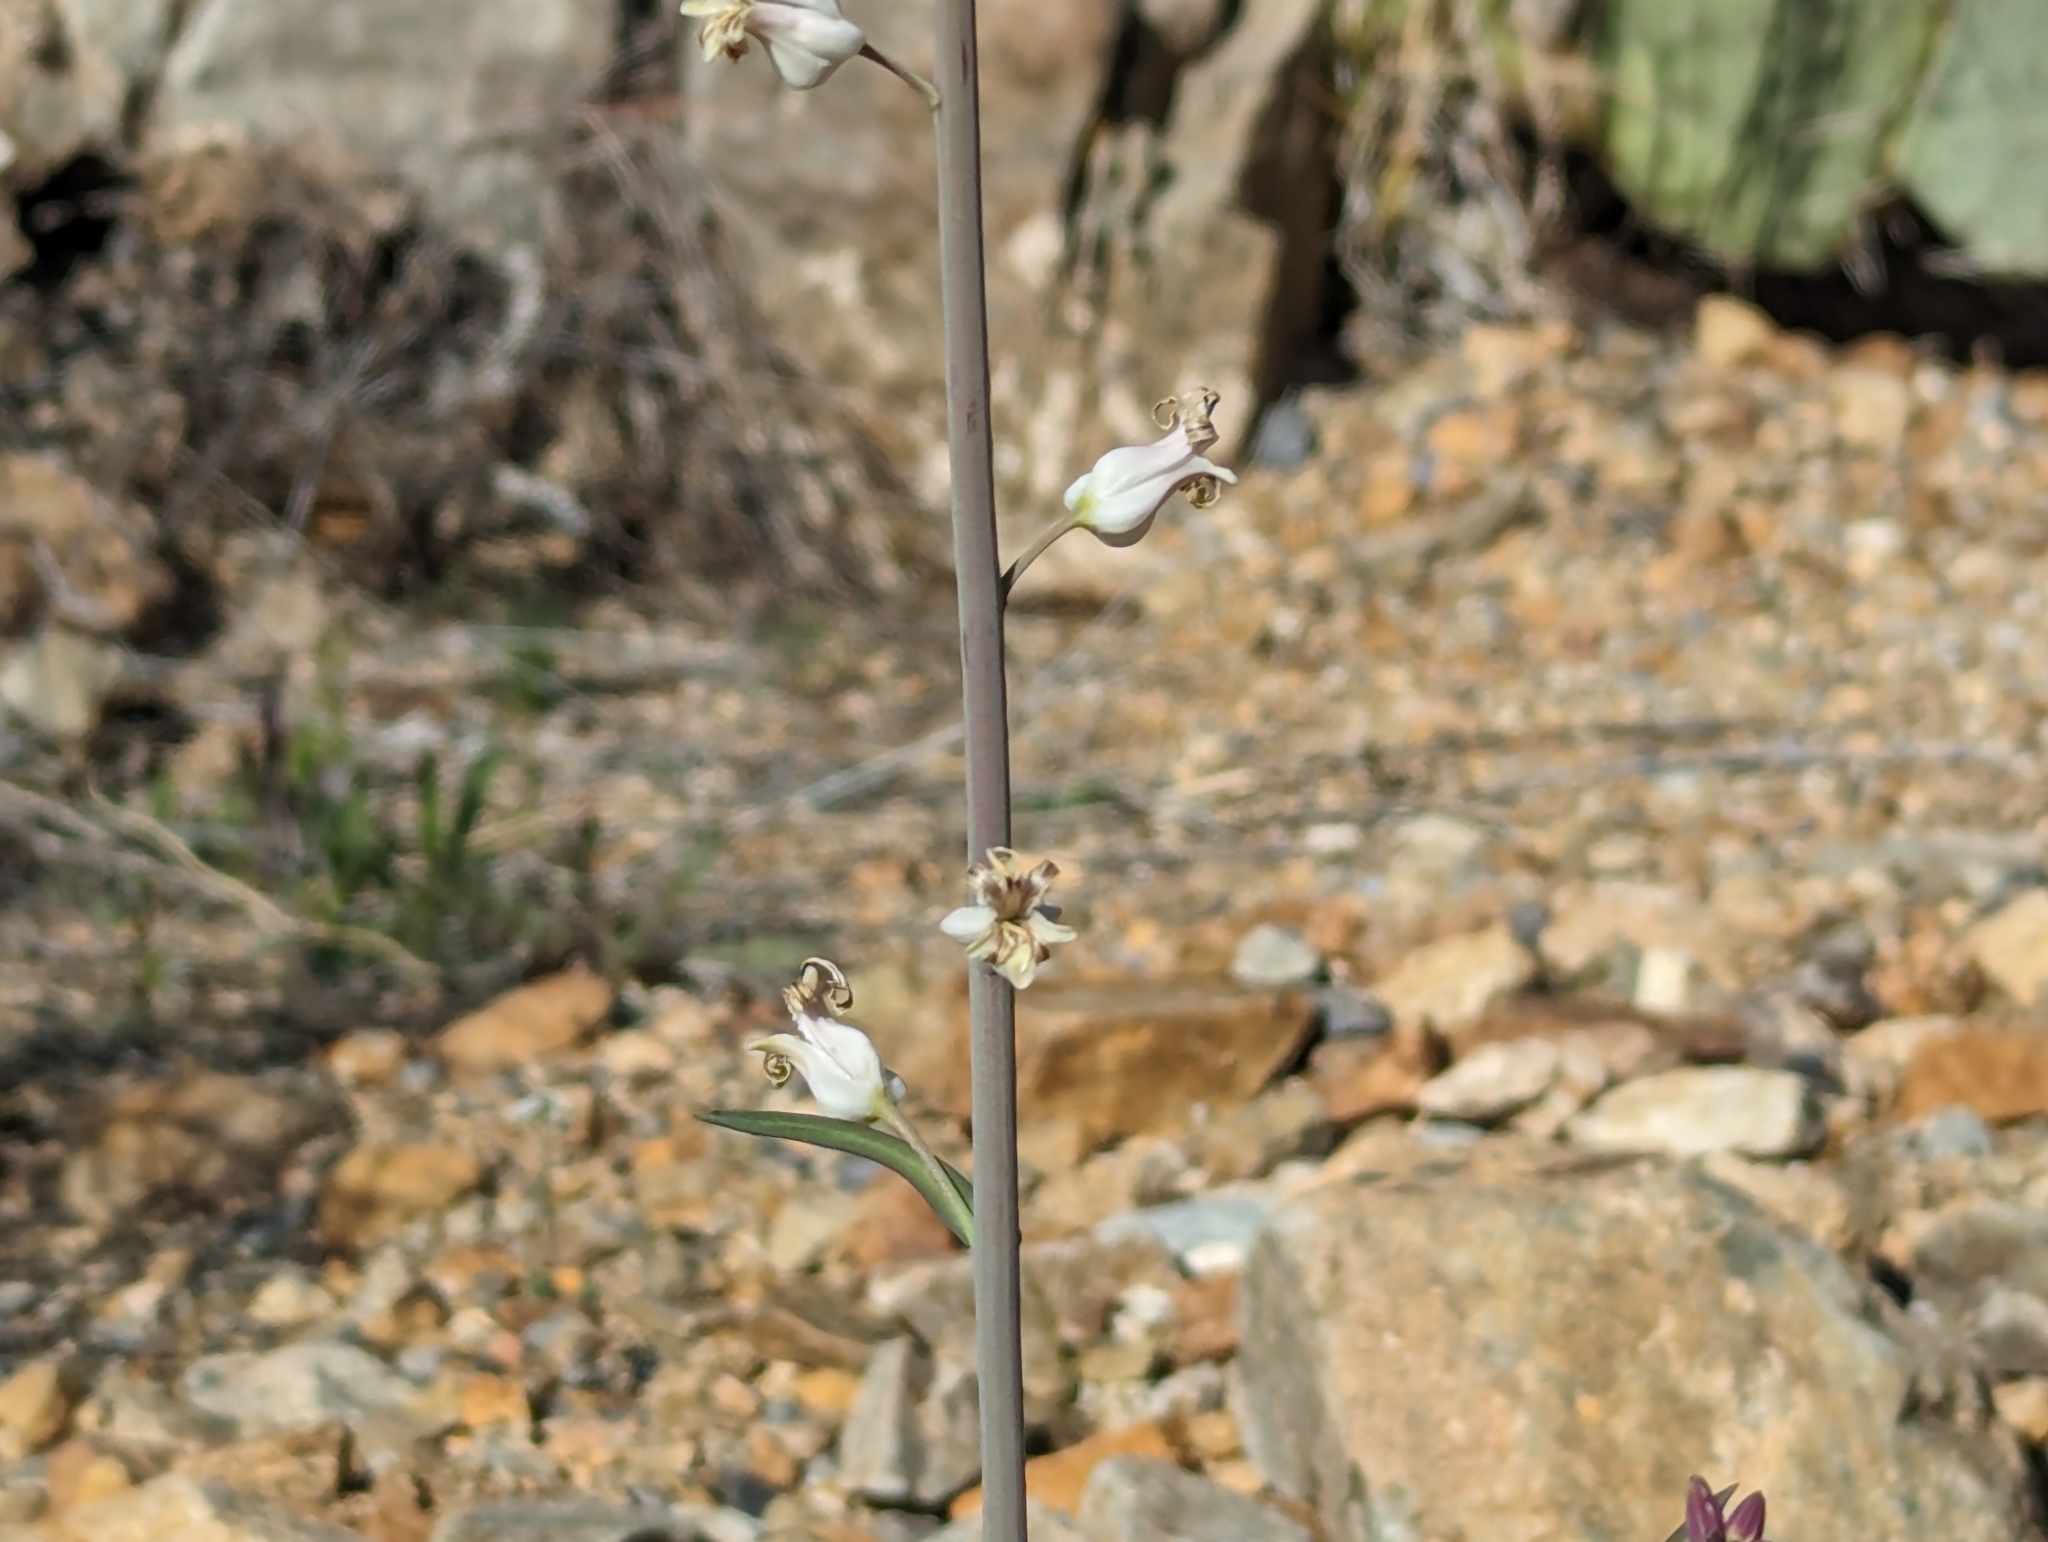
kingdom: Plantae
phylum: Tracheophyta
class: Magnoliopsida
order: Brassicales
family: Brassicaceae
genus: Streptanthus
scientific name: Streptanthus carinatus
